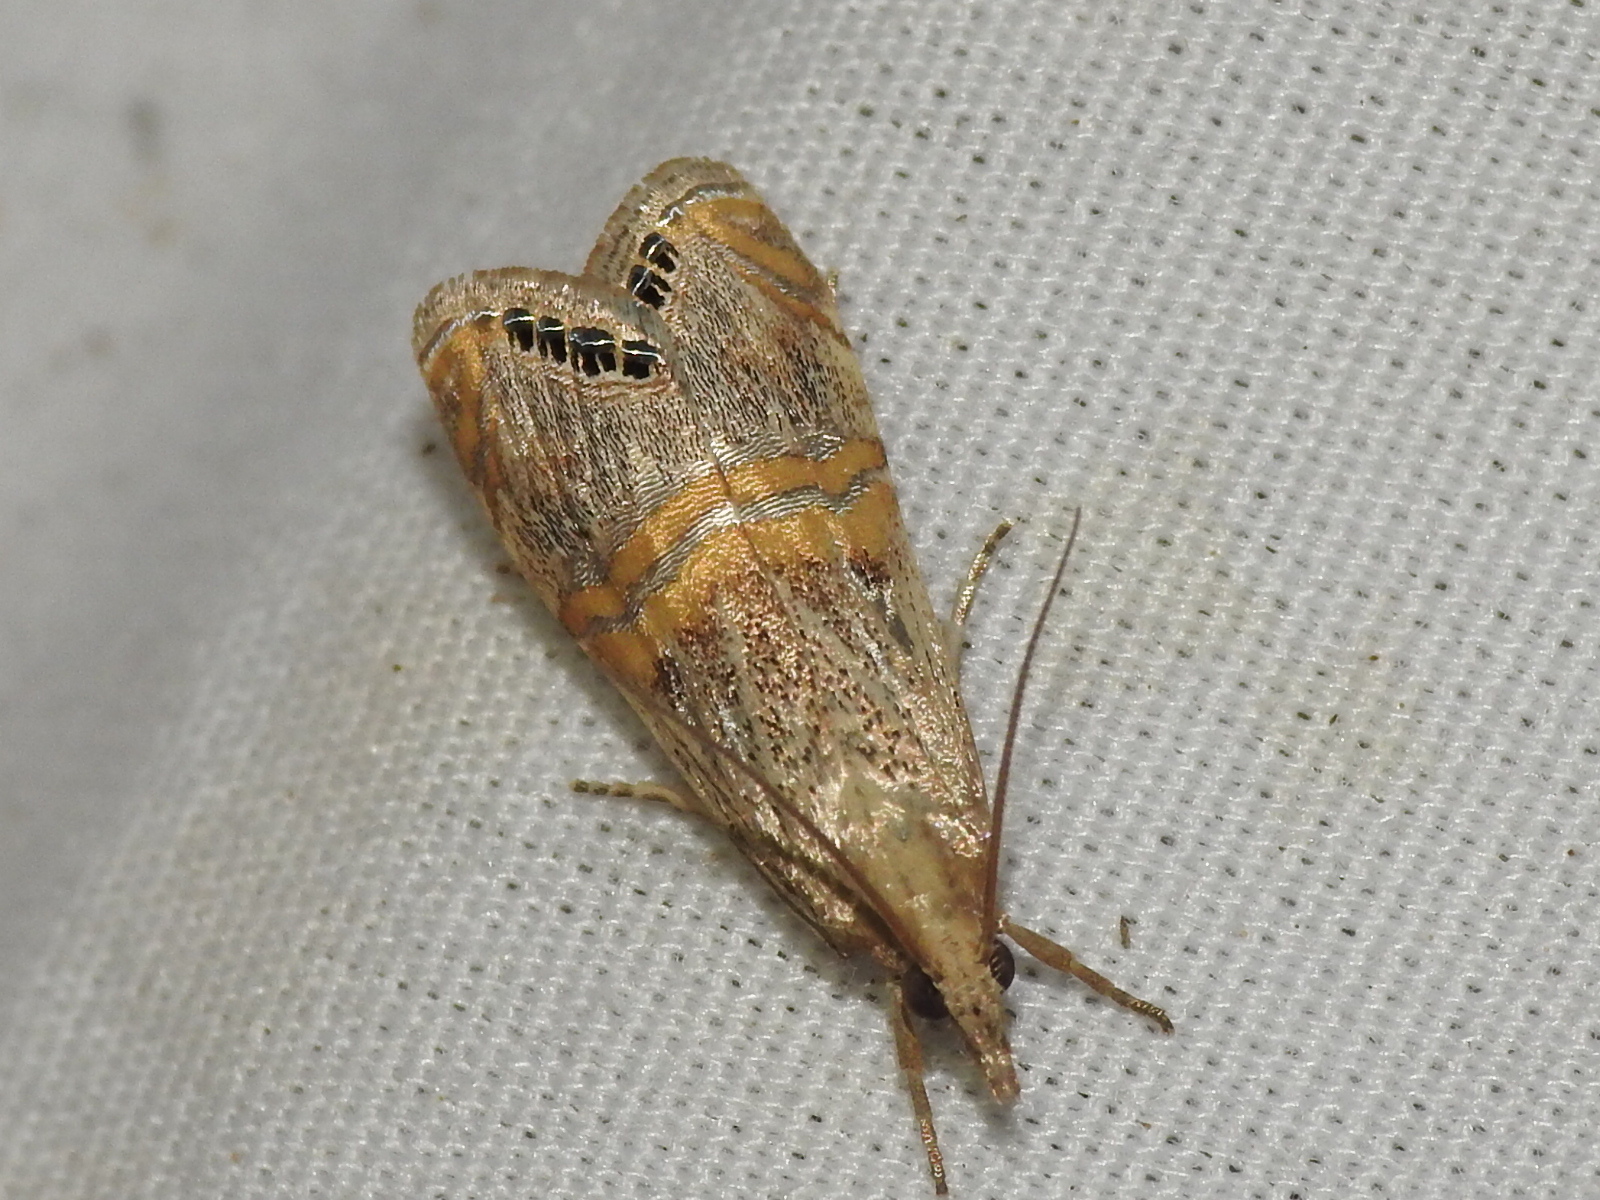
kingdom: Animalia
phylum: Arthropoda
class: Insecta
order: Lepidoptera
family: Crambidae
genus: Euchromius
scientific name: Euchromius ocellea
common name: Necklace veneer moth
